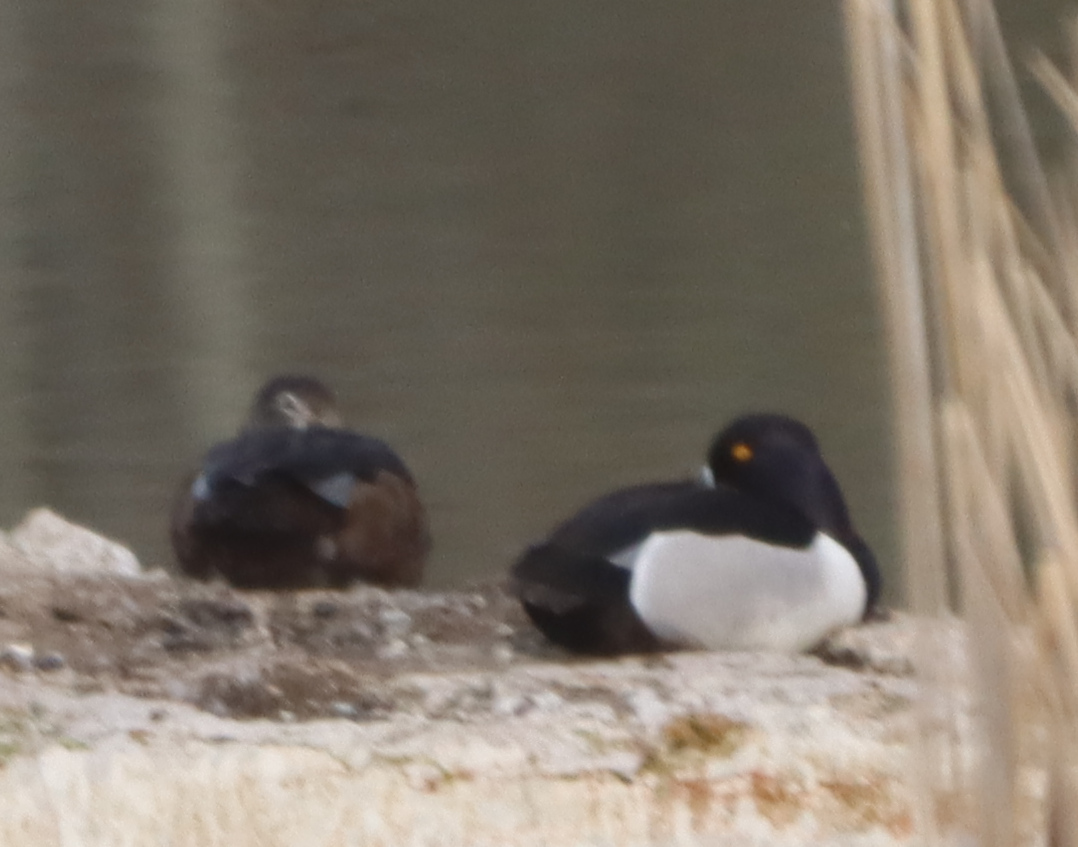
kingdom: Animalia
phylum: Chordata
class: Aves
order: Anseriformes
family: Anatidae
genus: Aythya
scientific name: Aythya collaris
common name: Ring-necked duck
